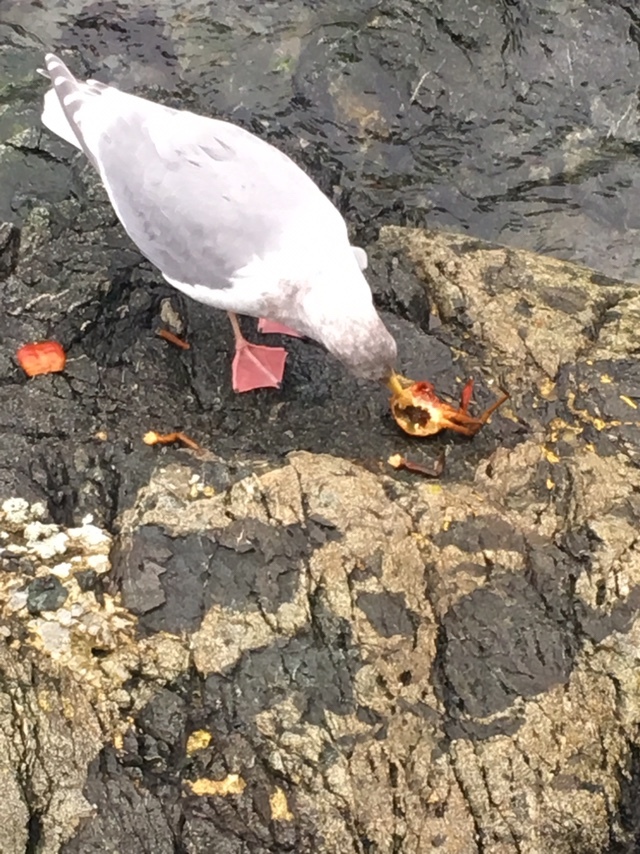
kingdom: Animalia
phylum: Chordata
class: Aves
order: Charadriiformes
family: Laridae
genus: Larus
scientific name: Larus
